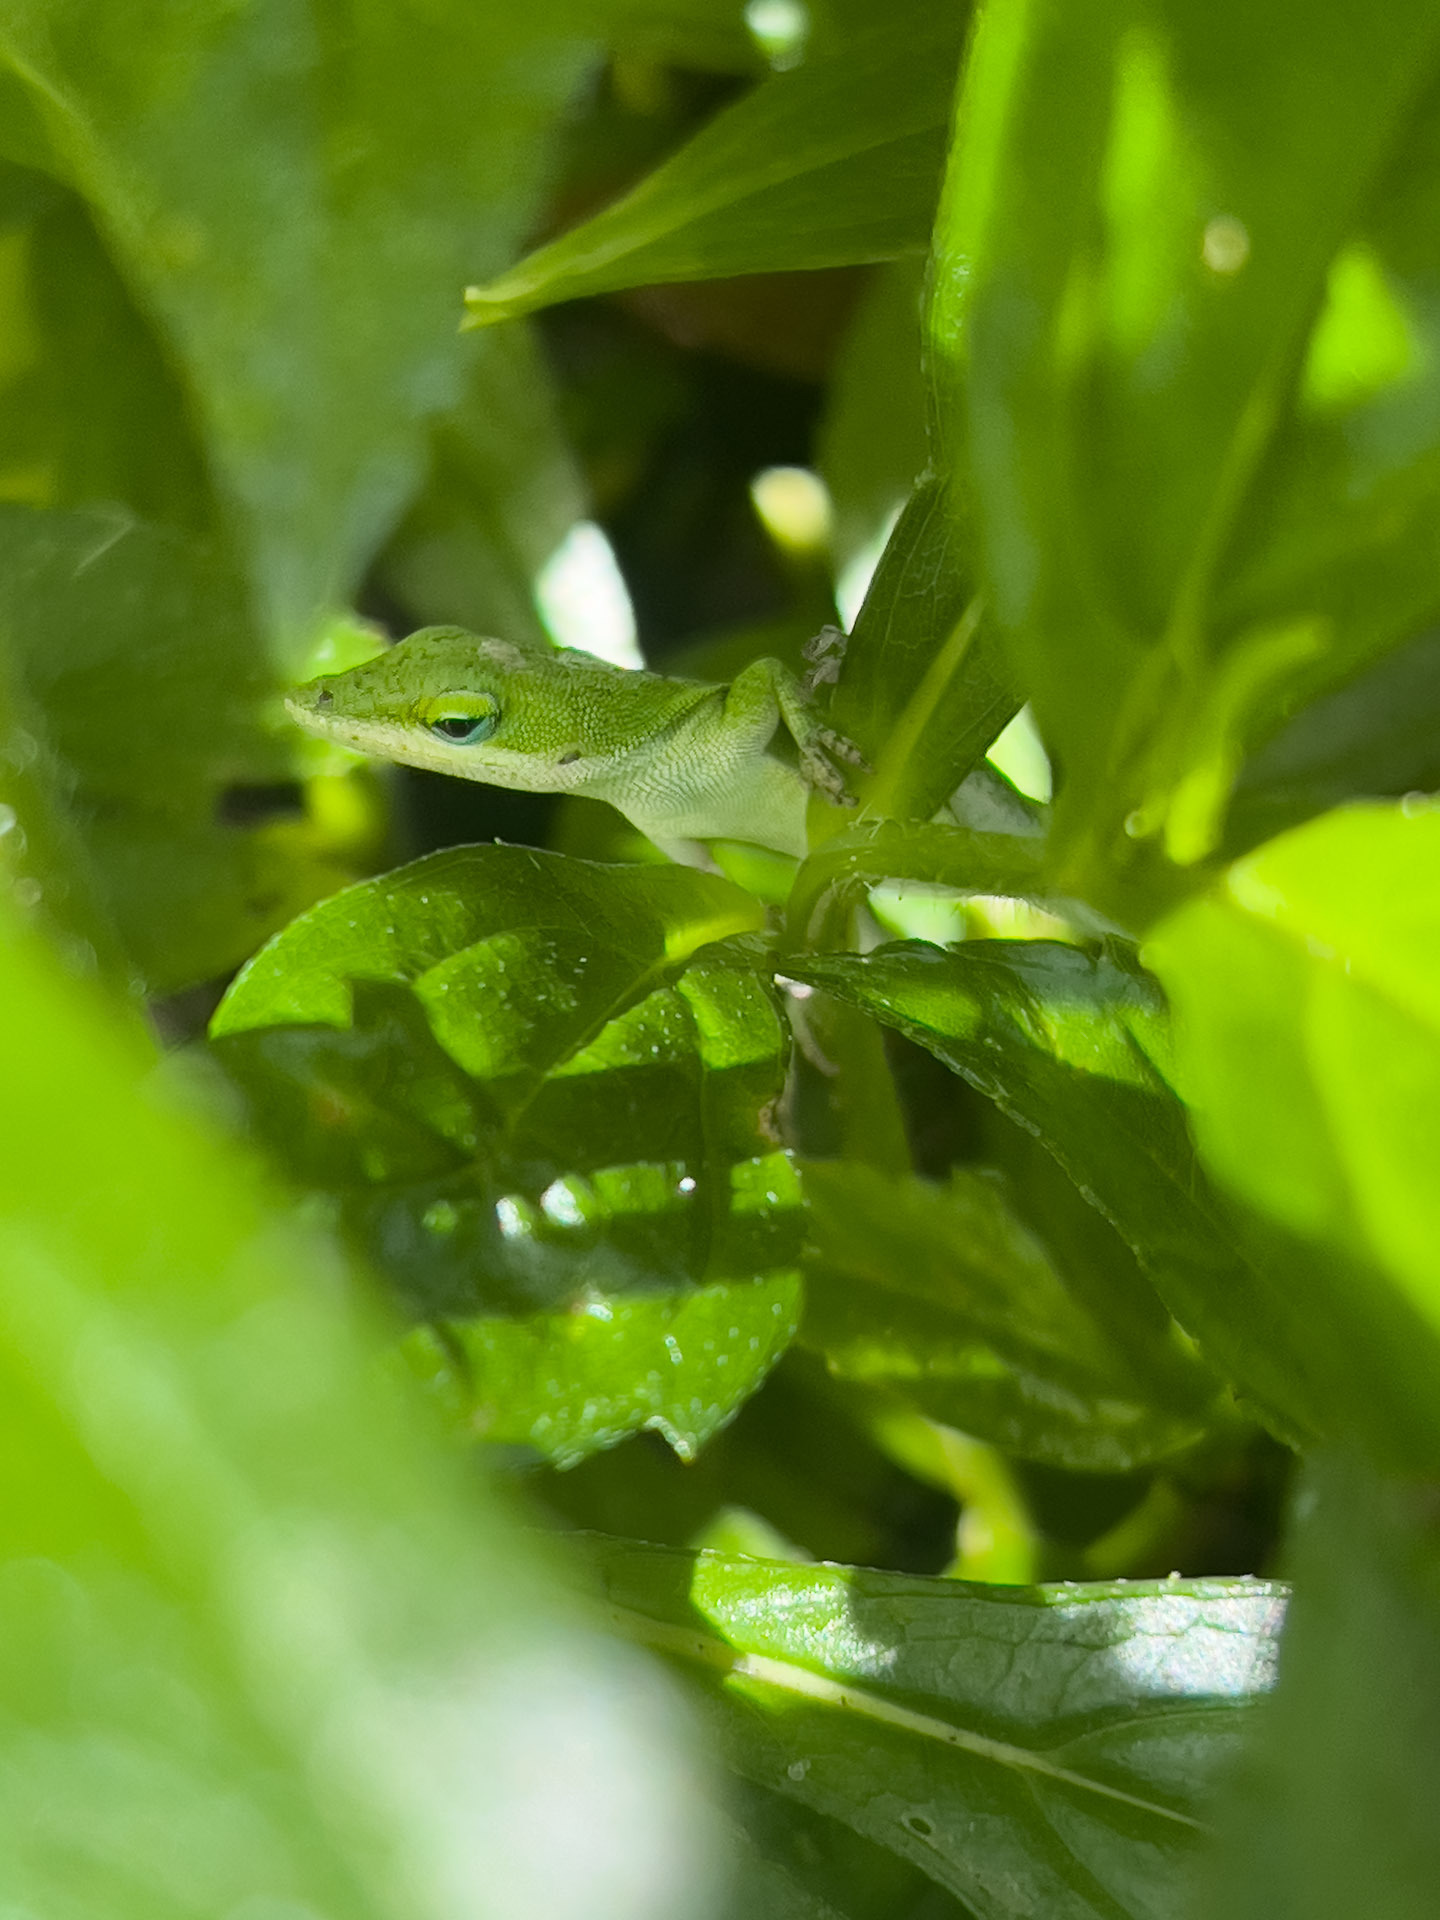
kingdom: Animalia
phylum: Chordata
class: Squamata
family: Dactyloidae
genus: Anolis
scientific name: Anolis carolinensis
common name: Green anole
